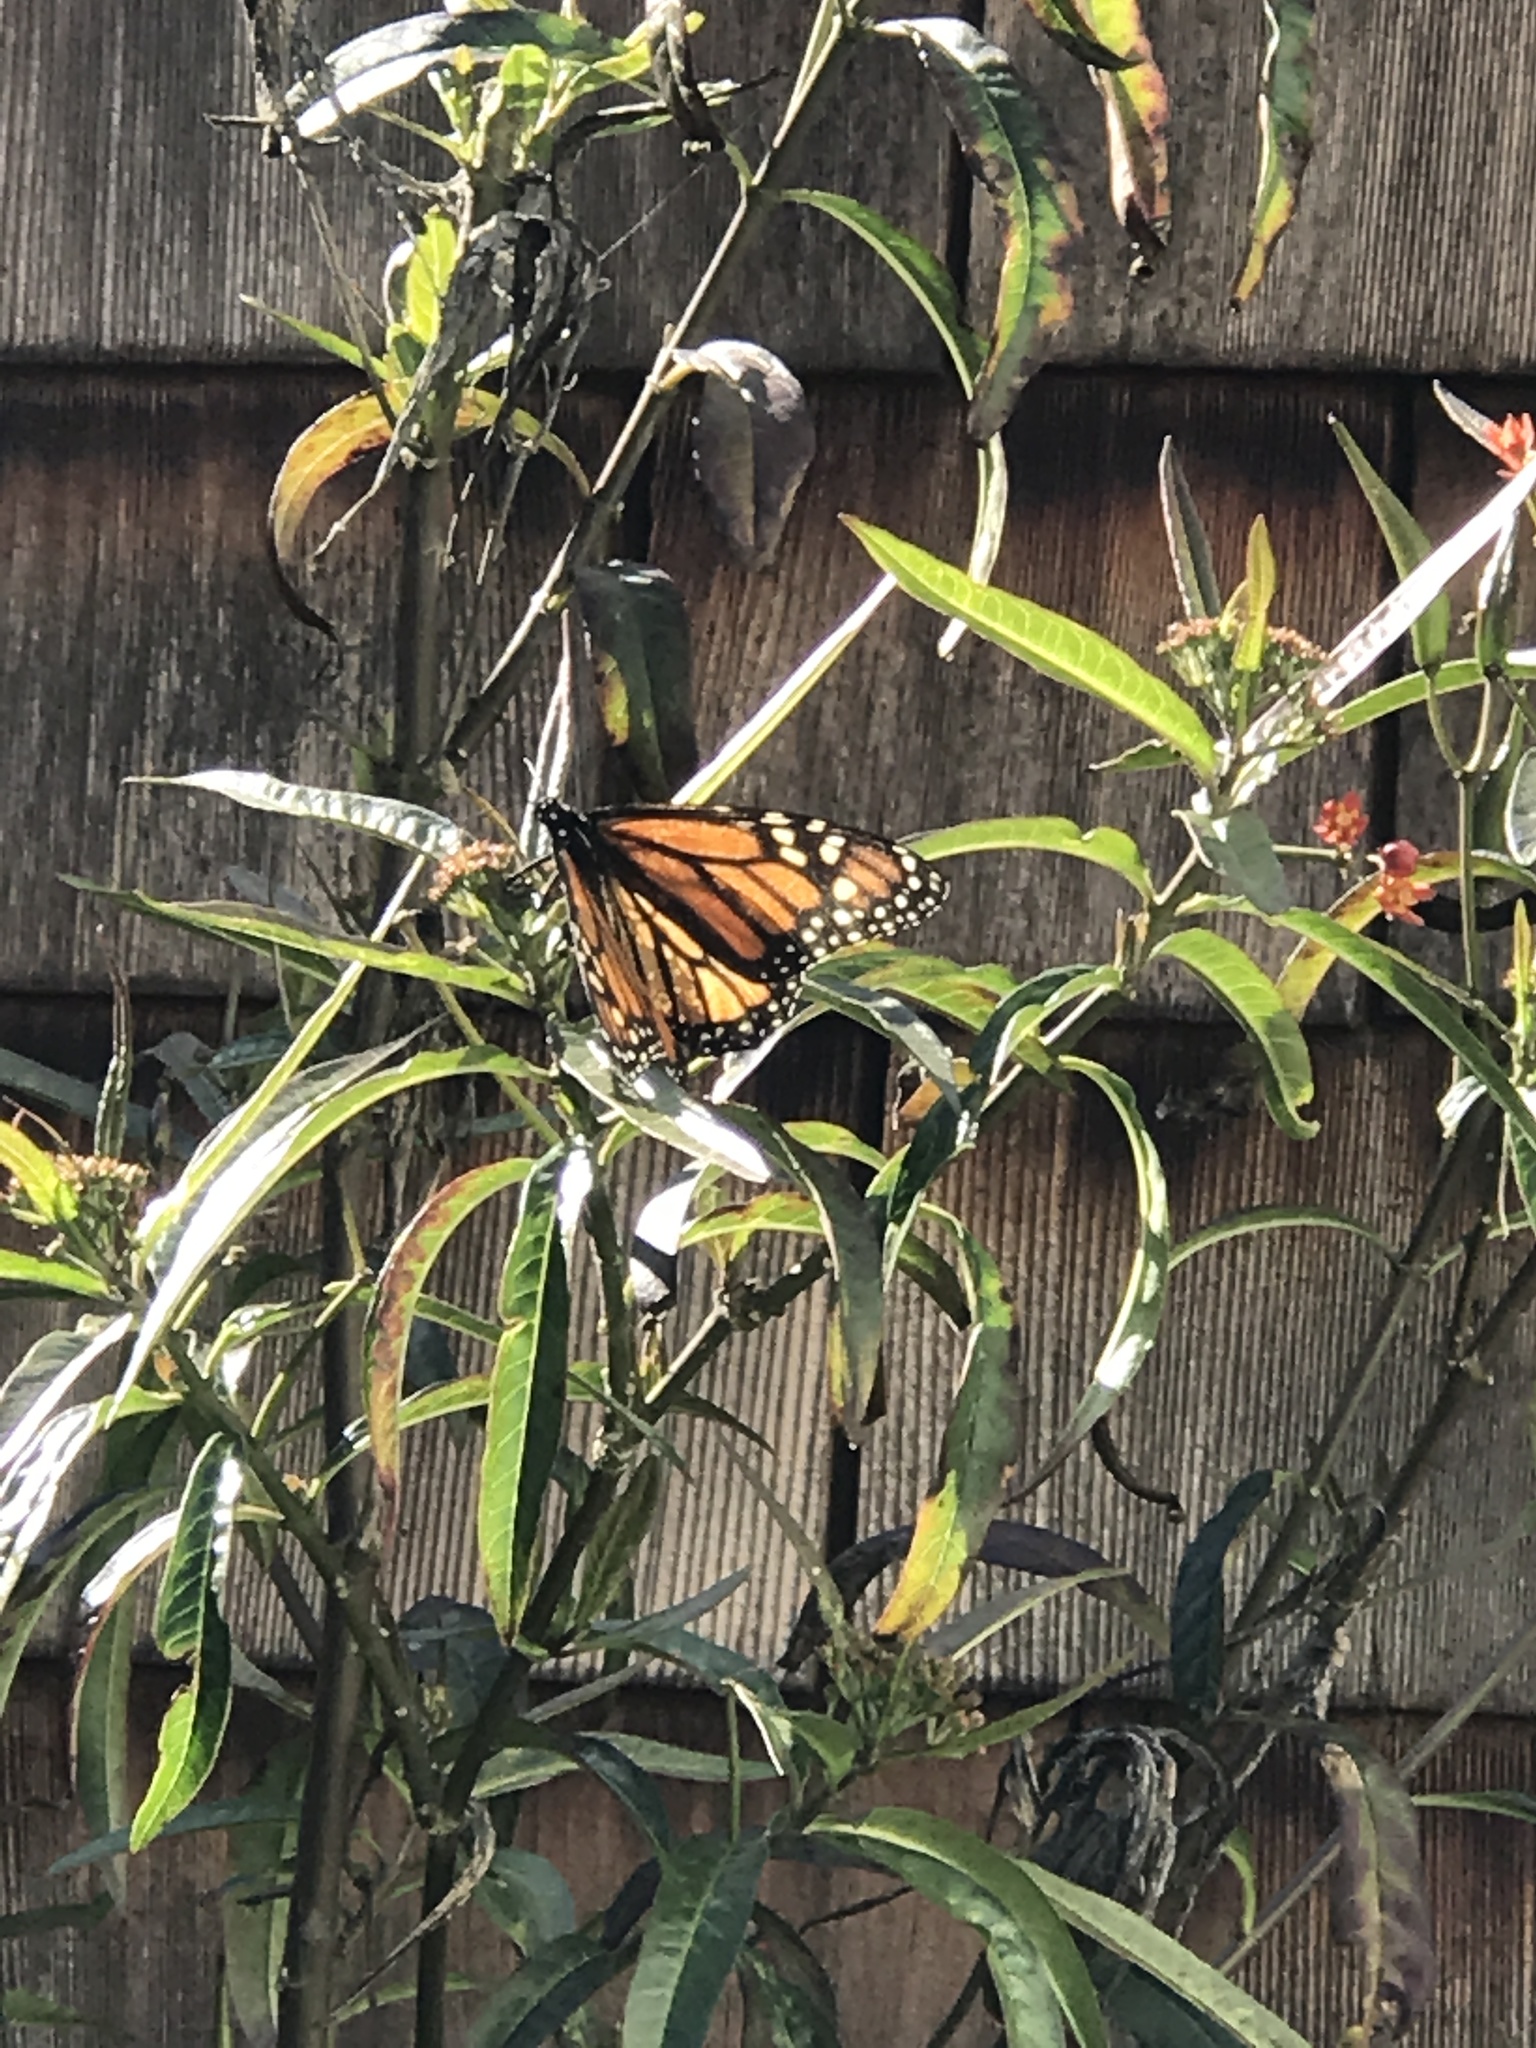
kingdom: Animalia
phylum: Arthropoda
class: Insecta
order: Lepidoptera
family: Nymphalidae
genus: Danaus
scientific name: Danaus plexippus
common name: Monarch
